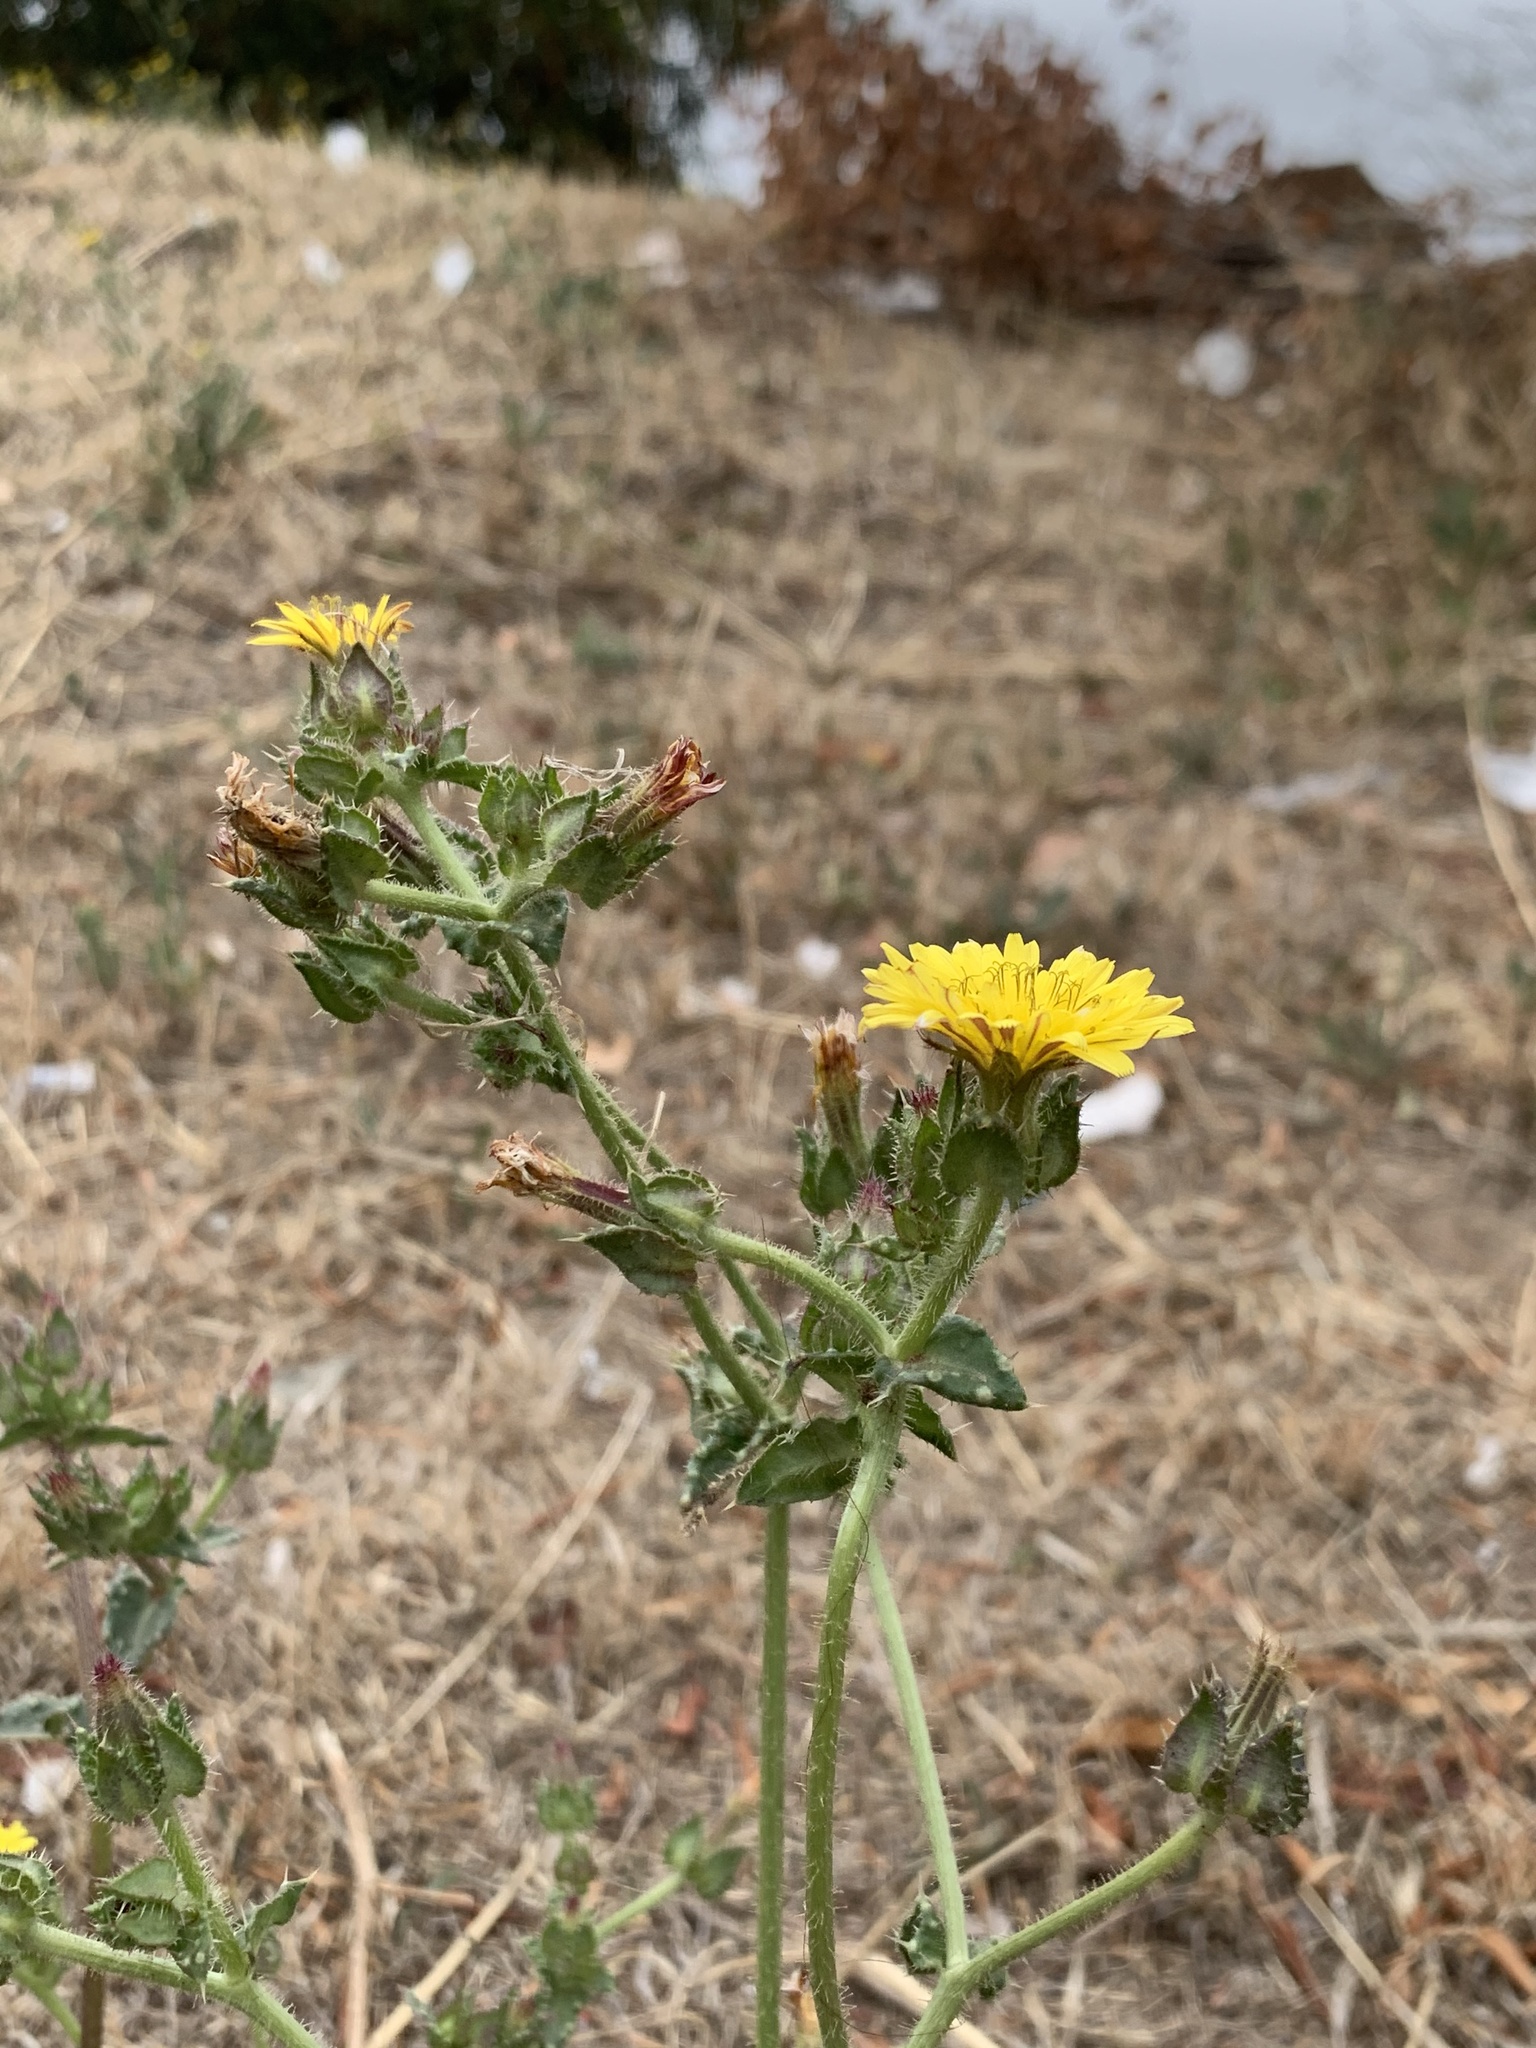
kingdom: Plantae
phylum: Tracheophyta
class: Magnoliopsida
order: Asterales
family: Asteraceae
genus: Helminthotheca
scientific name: Helminthotheca echioides
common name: Ox-tongue
